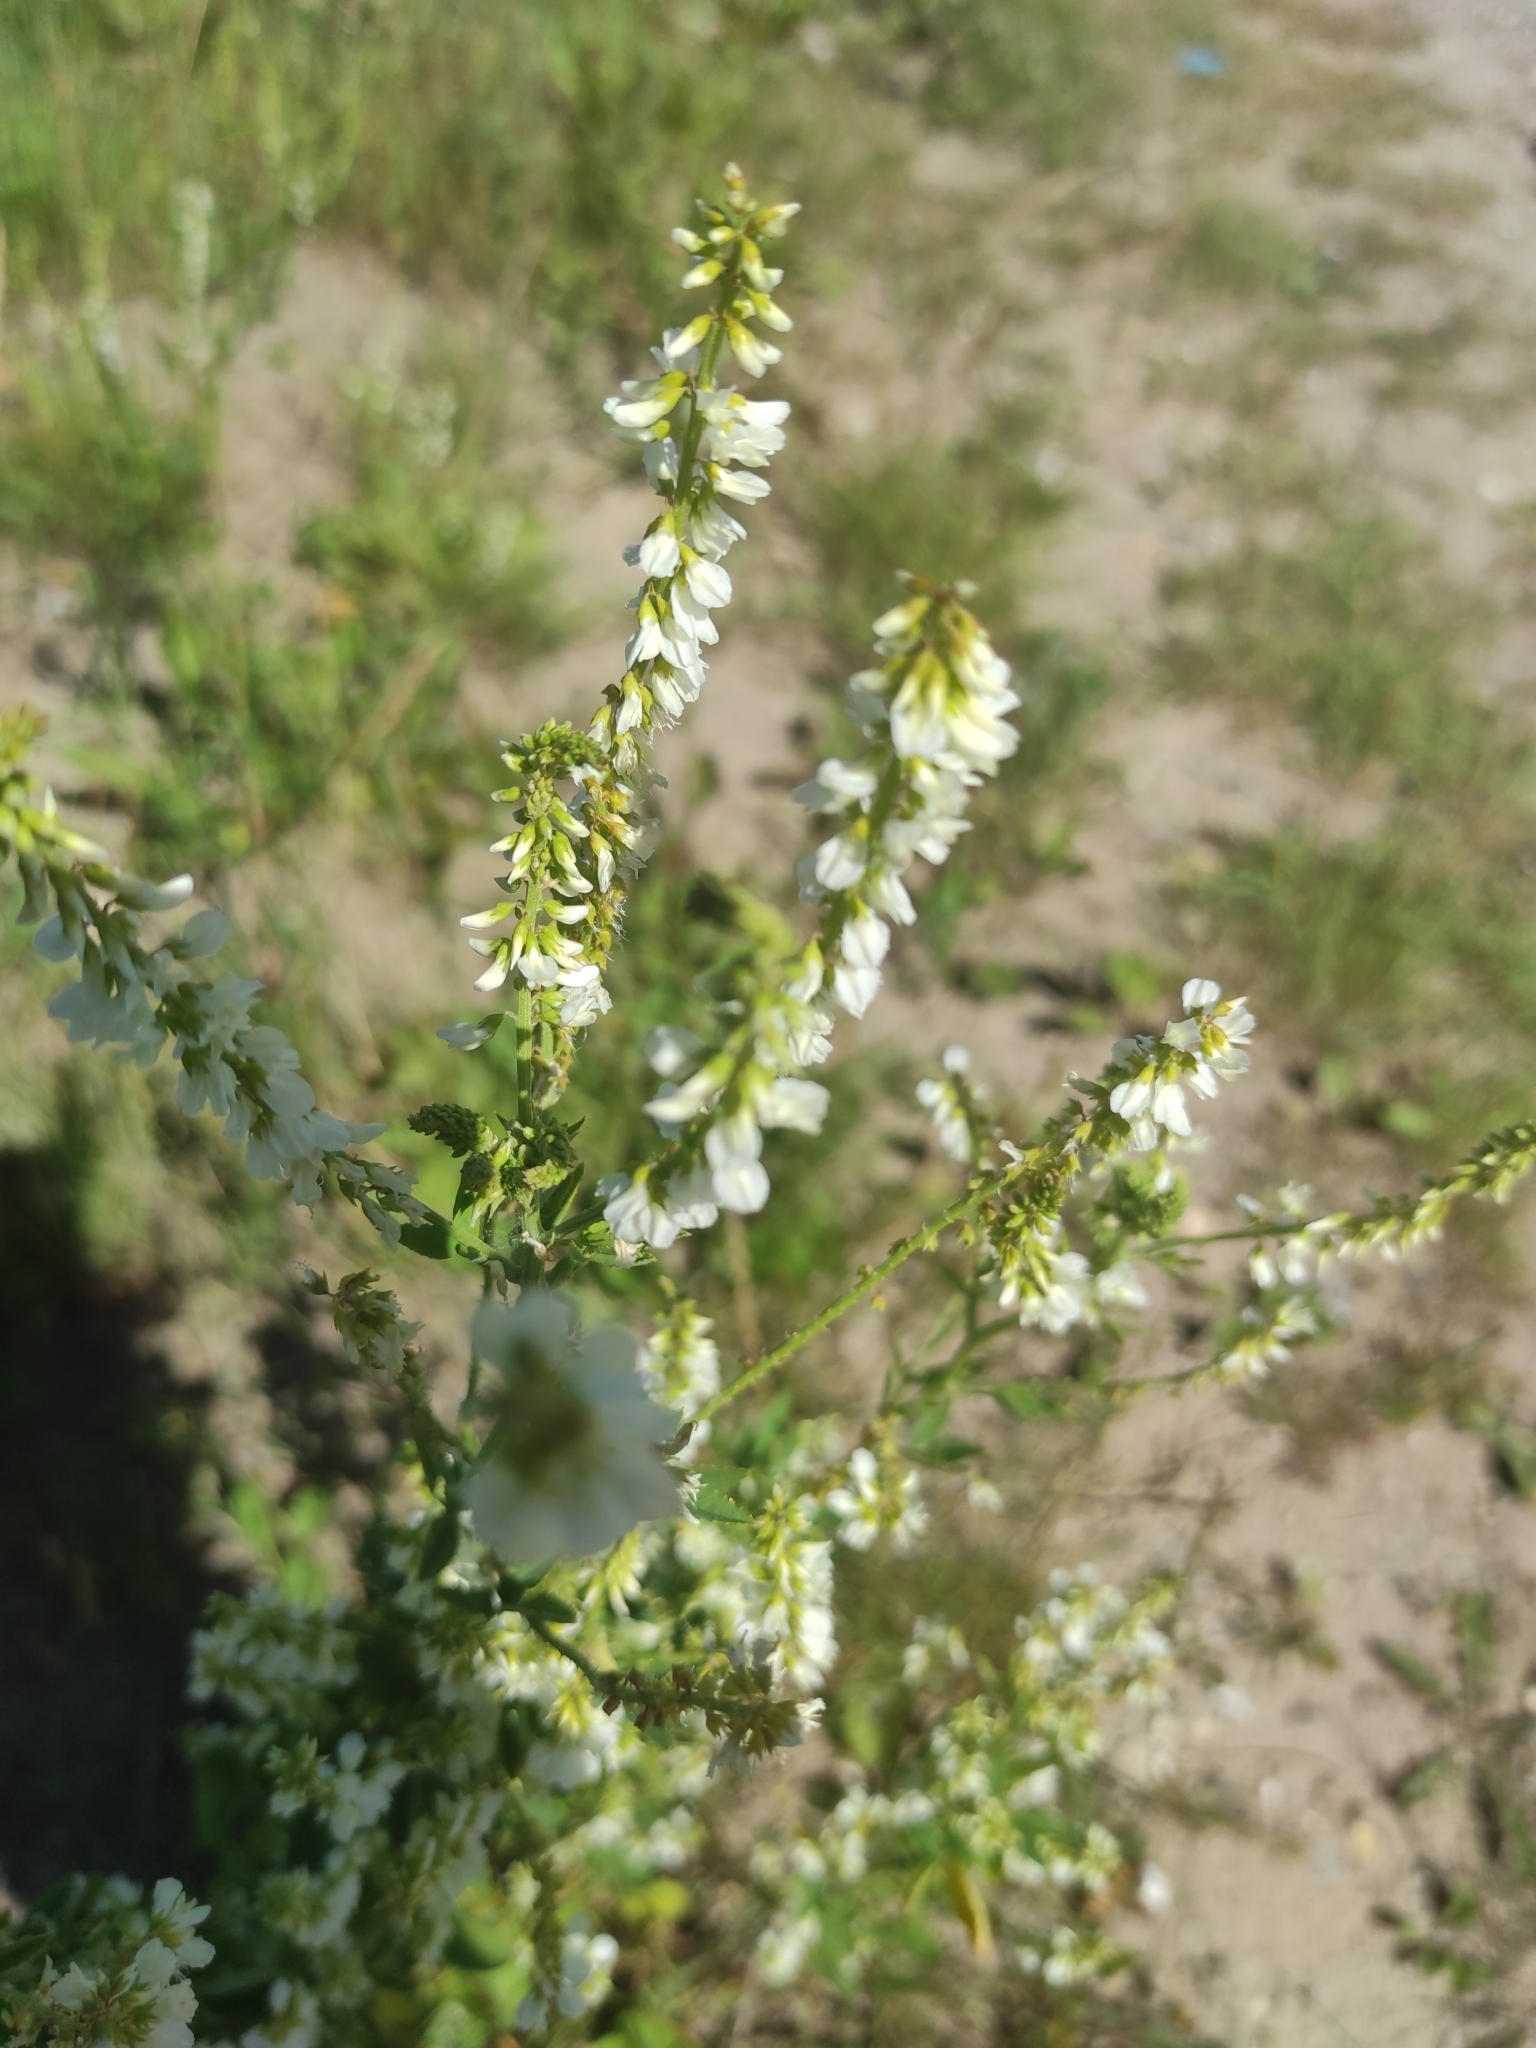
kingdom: Plantae
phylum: Tracheophyta
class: Magnoliopsida
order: Fabales
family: Fabaceae
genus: Melilotus
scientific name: Melilotus albus
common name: White melilot
